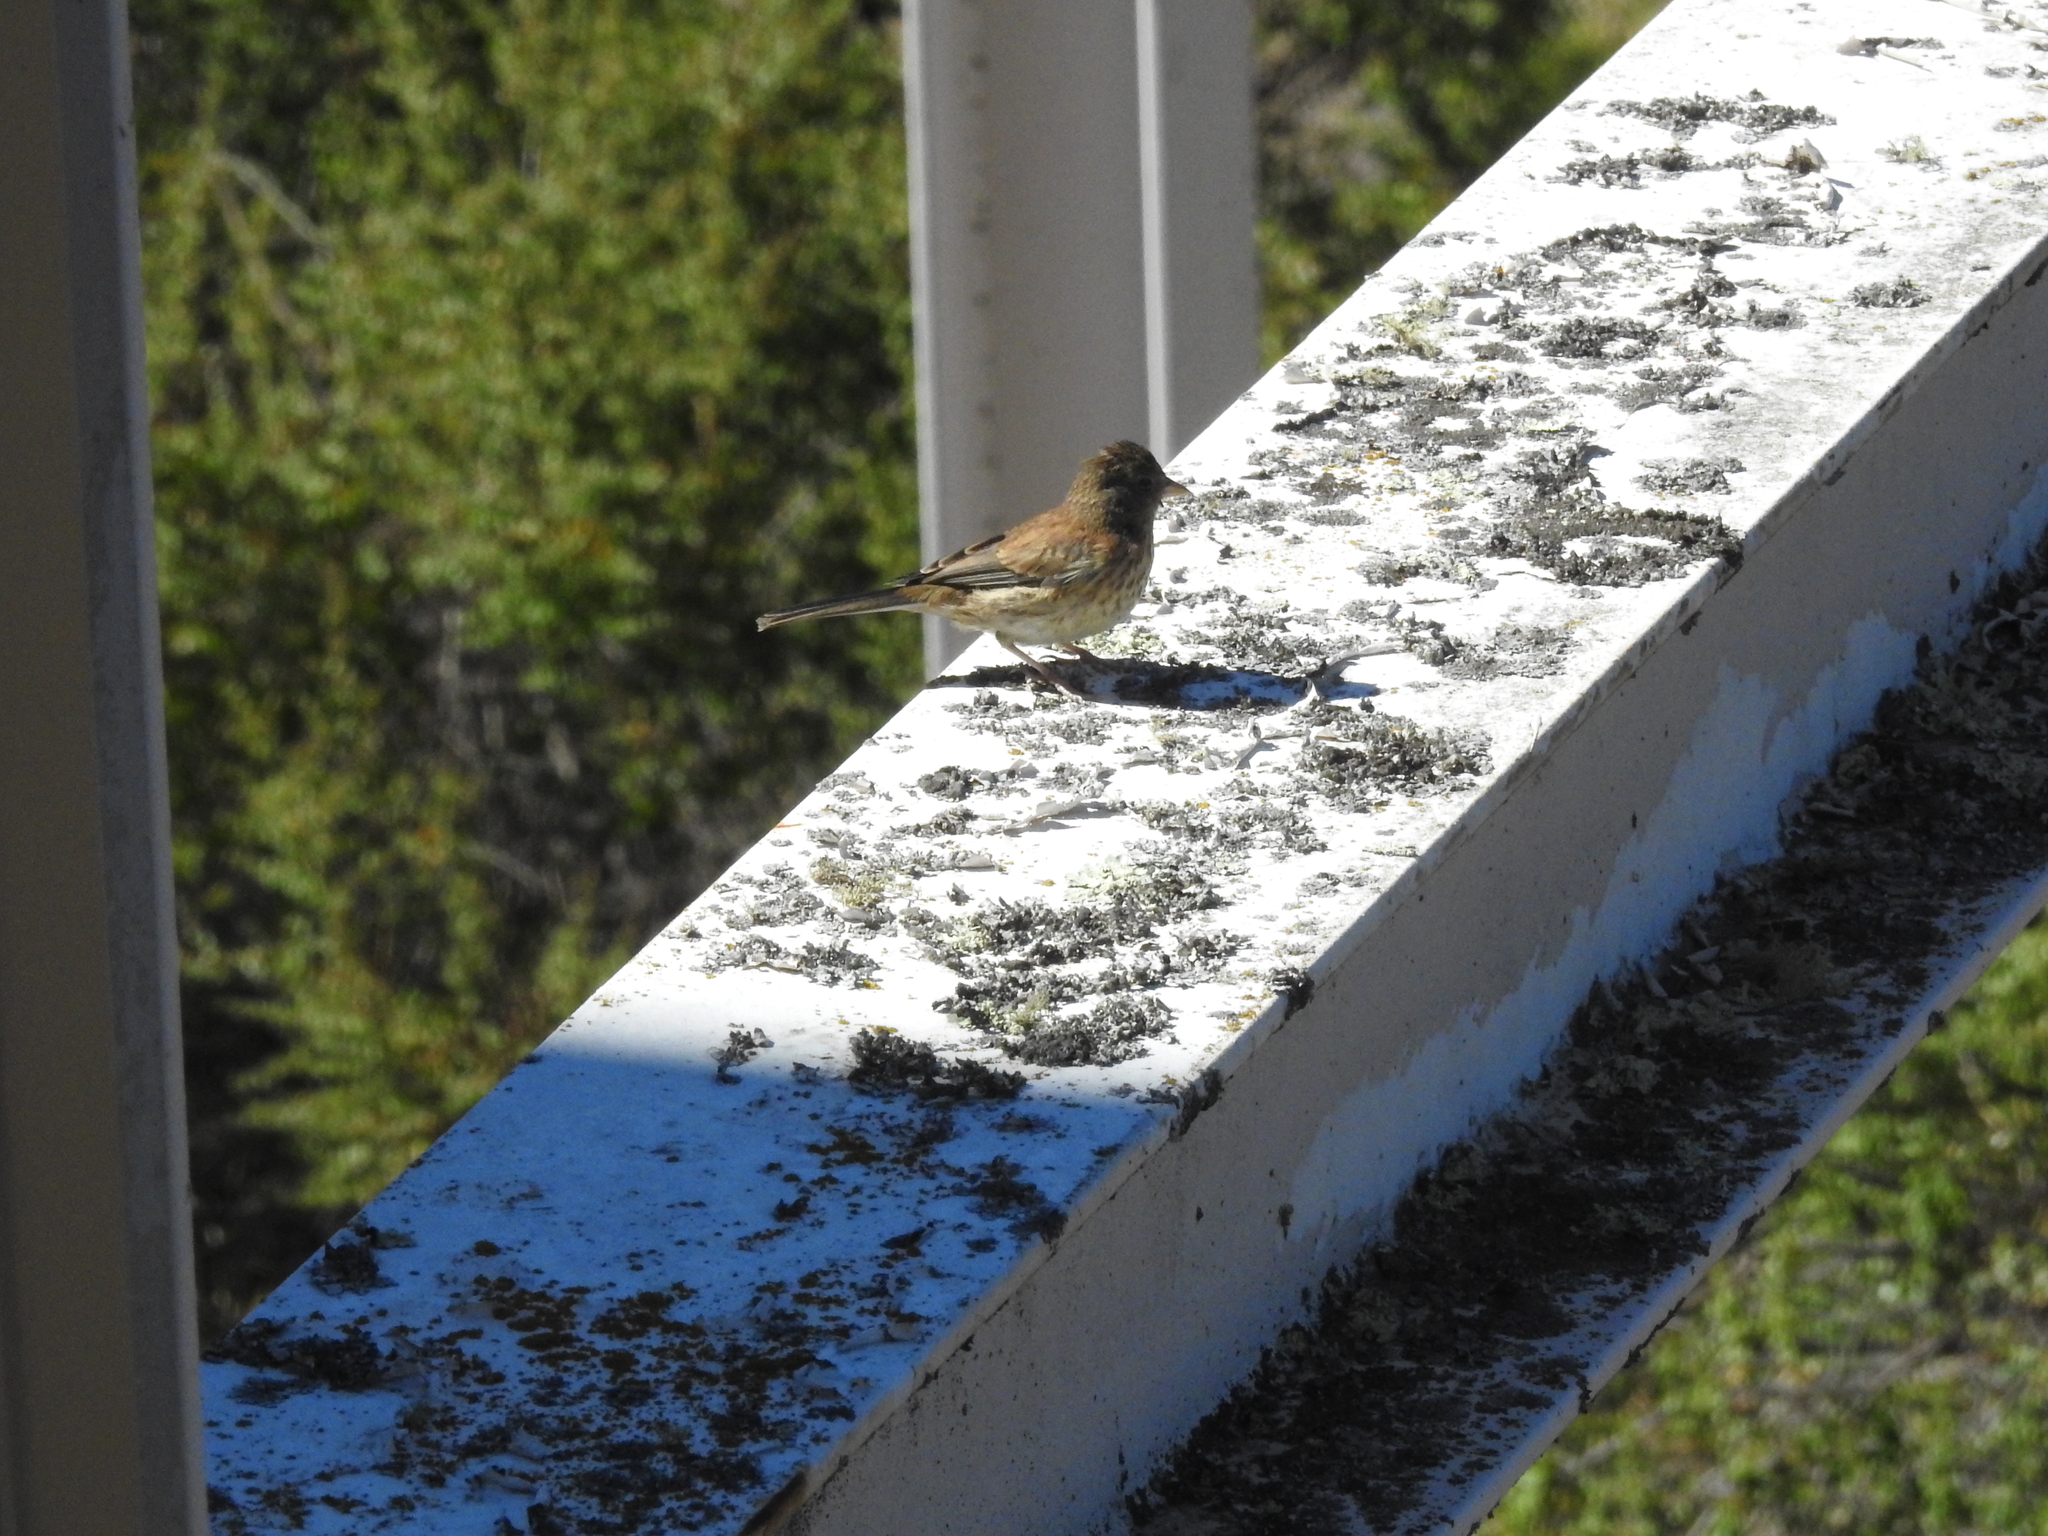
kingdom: Animalia
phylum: Chordata
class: Aves
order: Passeriformes
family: Passerellidae
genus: Junco
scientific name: Junco hyemalis
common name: Dark-eyed junco
